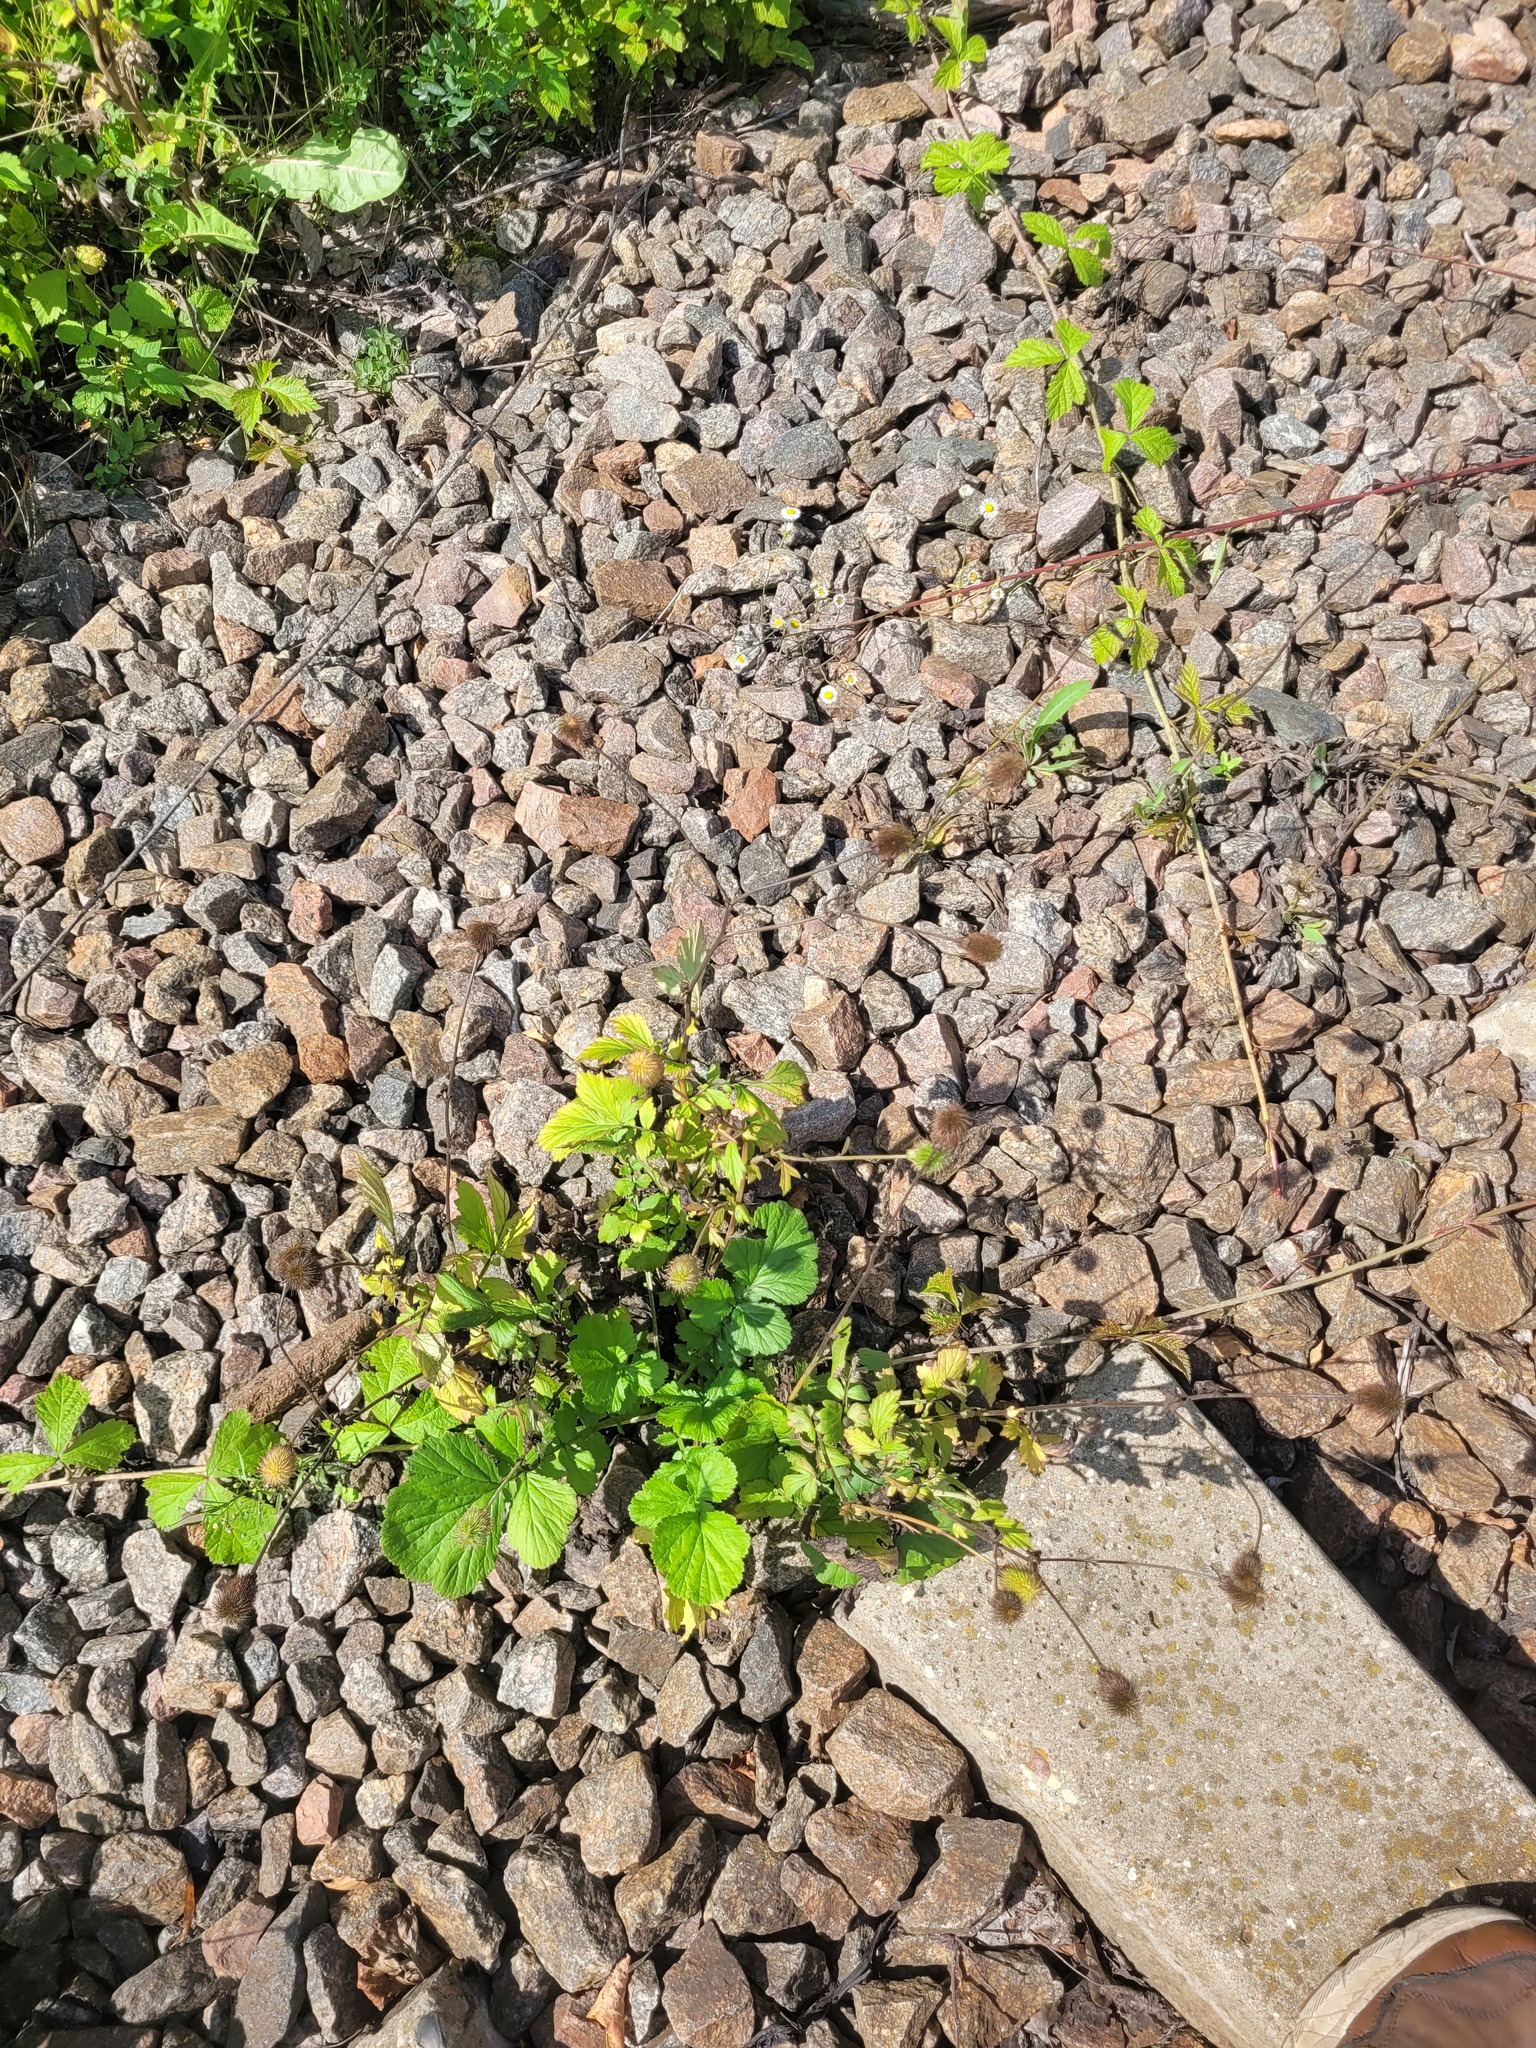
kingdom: Plantae
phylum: Tracheophyta
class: Magnoliopsida
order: Rosales
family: Rosaceae
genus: Geum
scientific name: Geum urbanum
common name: Wood avens
